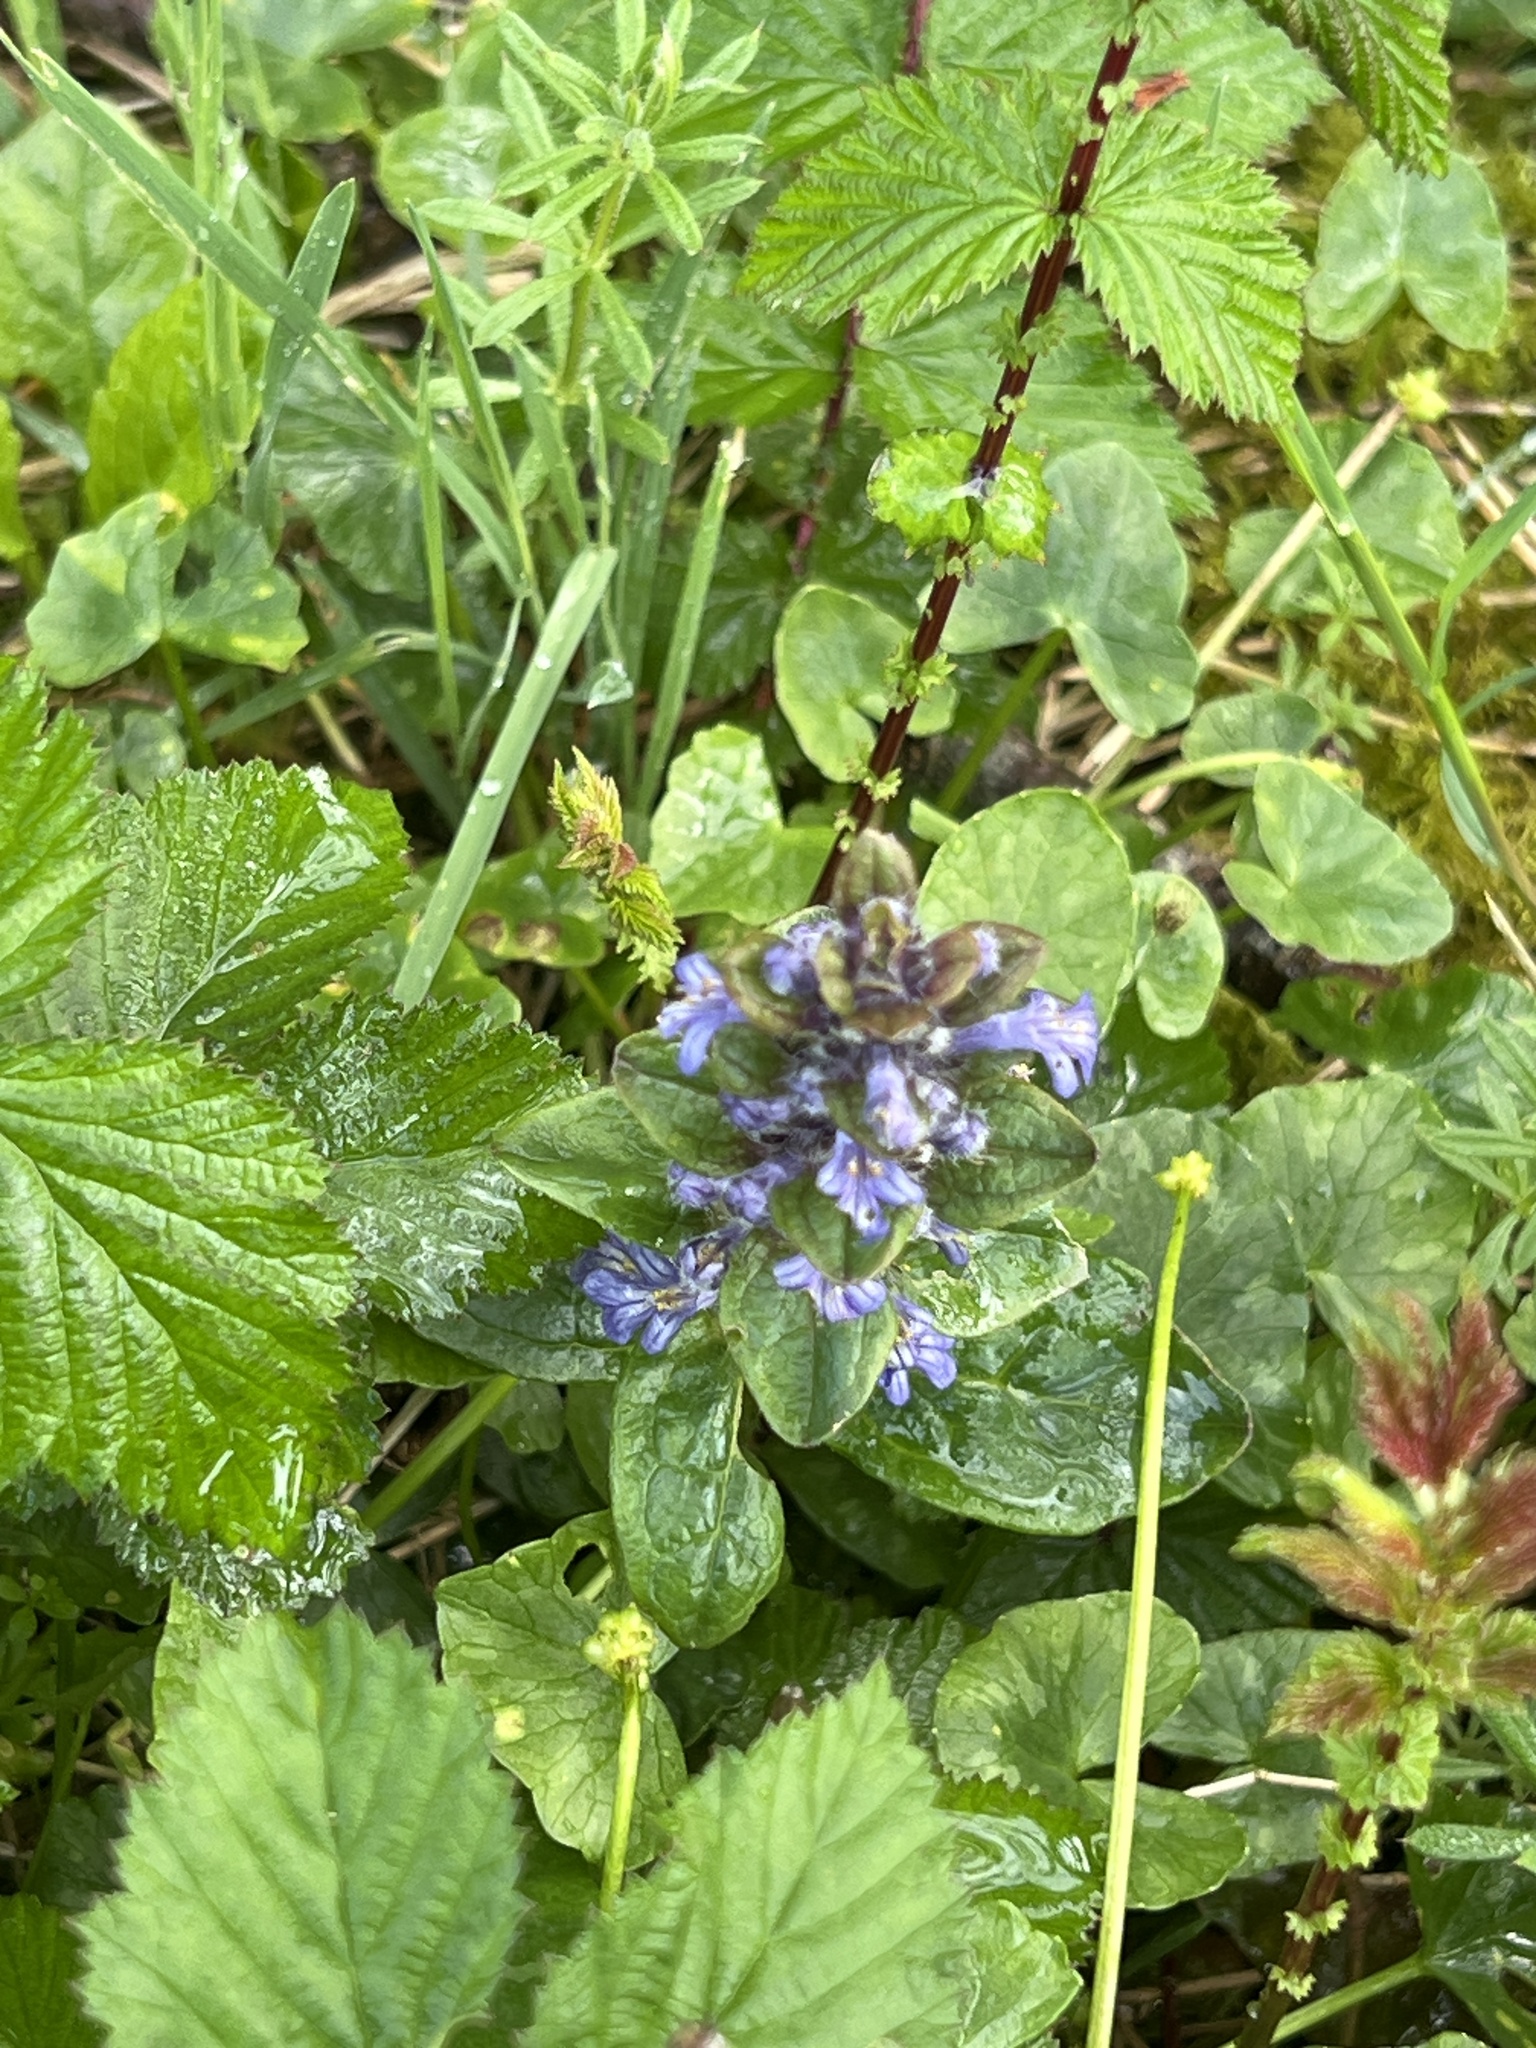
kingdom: Plantae
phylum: Tracheophyta
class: Magnoliopsida
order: Lamiales
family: Lamiaceae
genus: Ajuga
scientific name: Ajuga reptans
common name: Bugle
